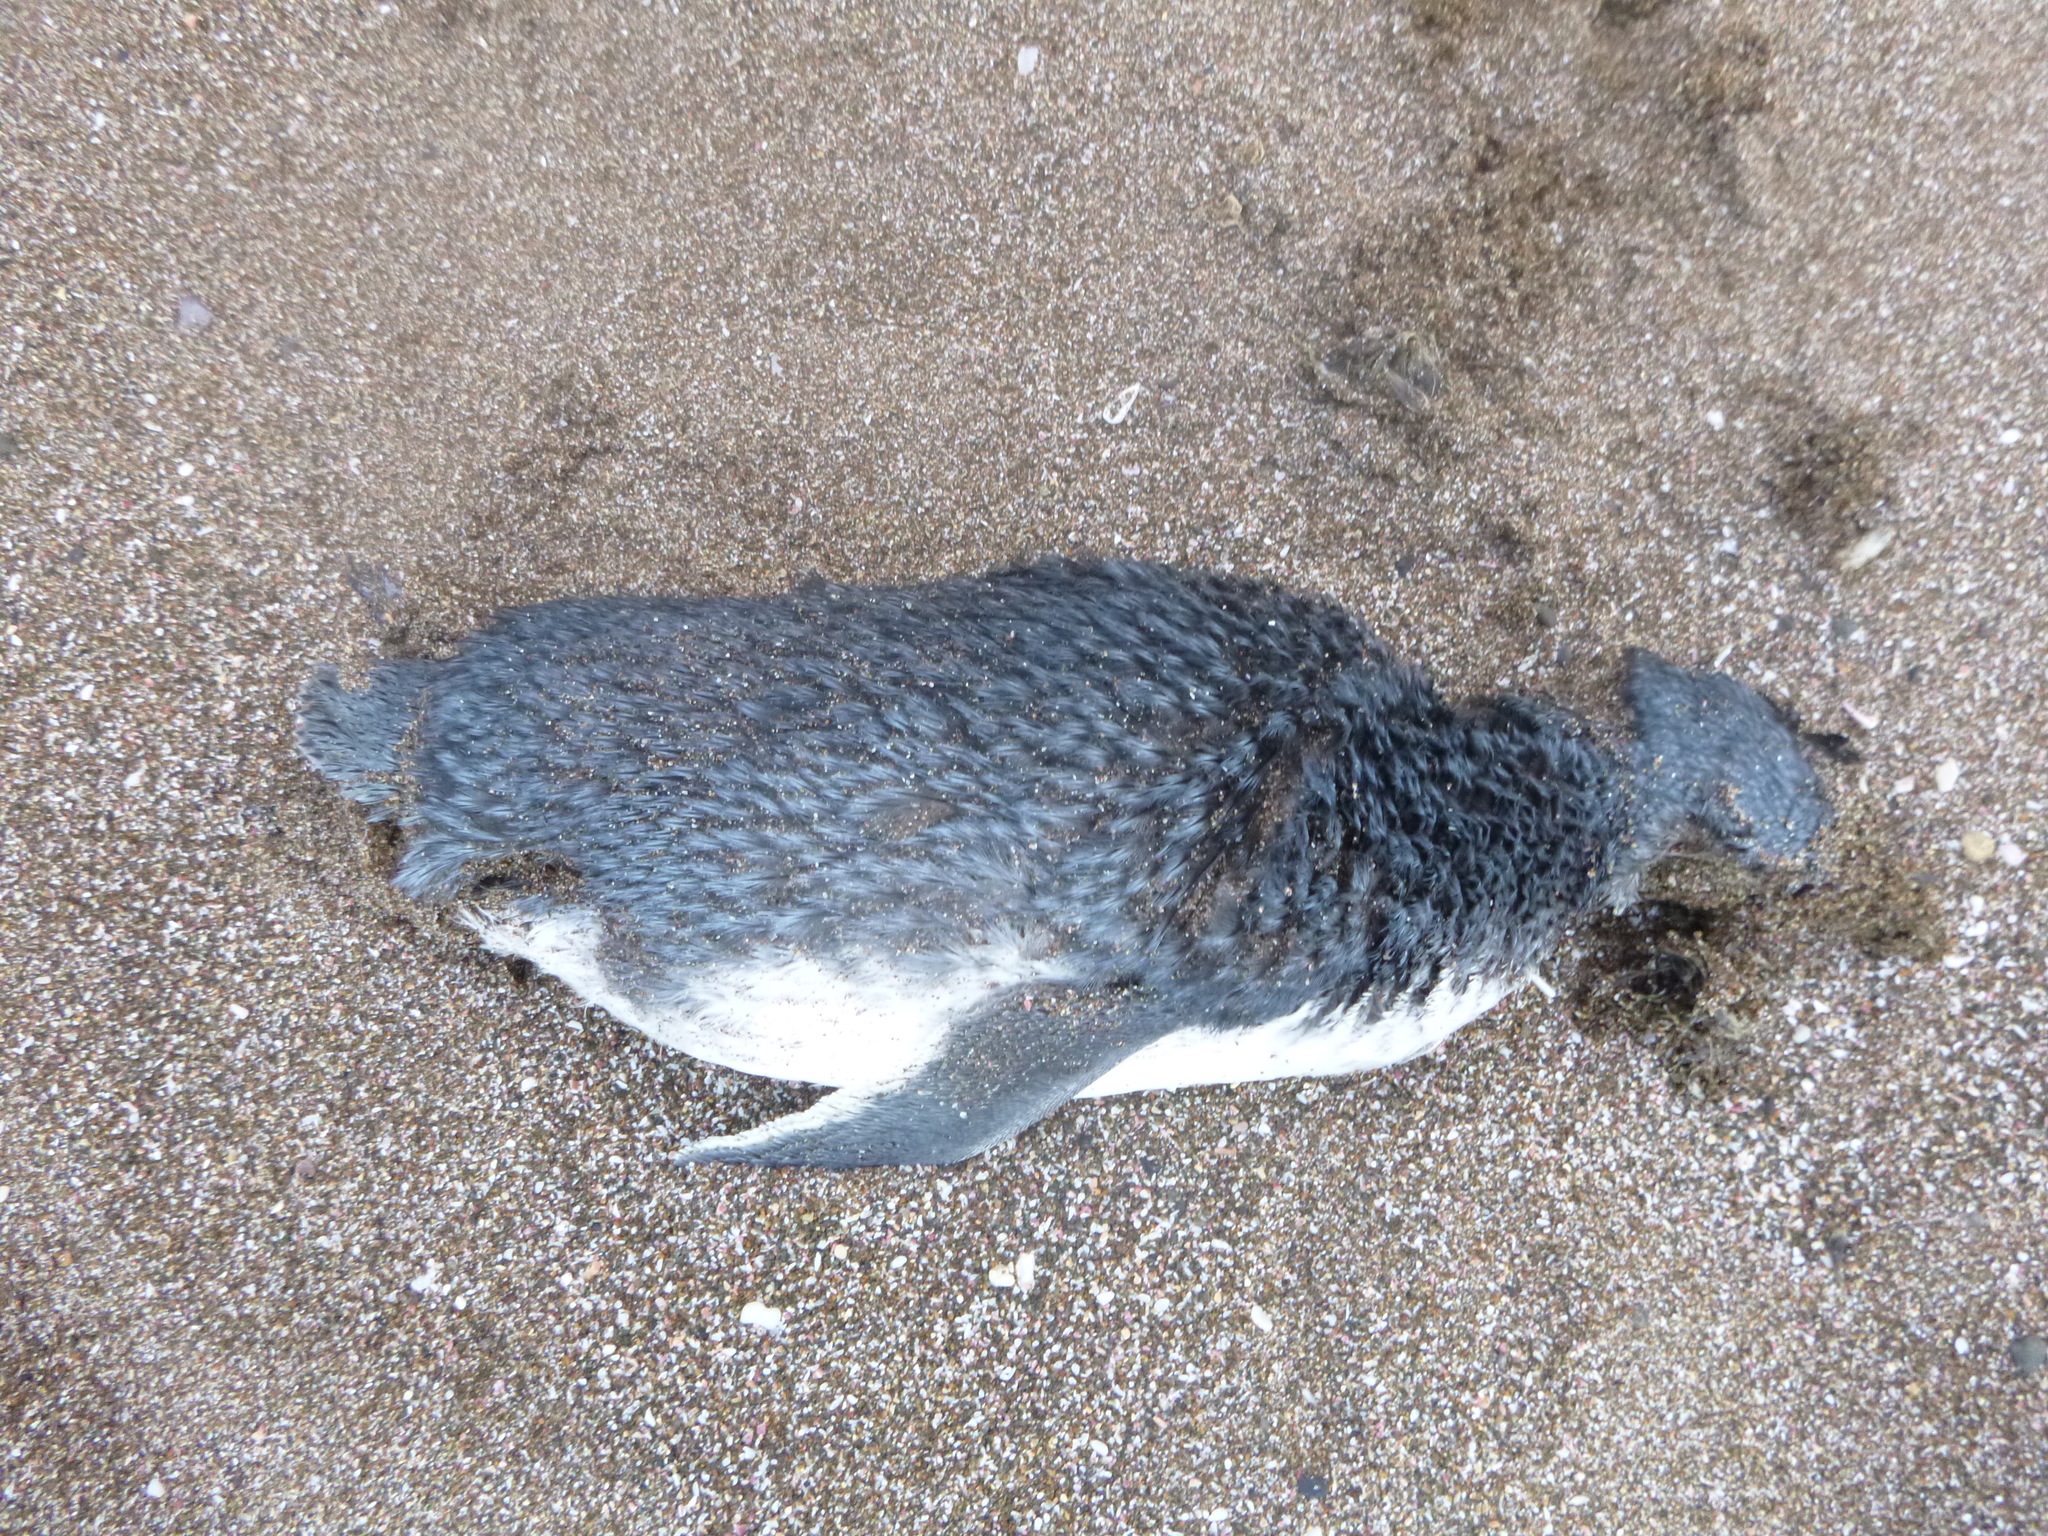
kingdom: Animalia
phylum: Chordata
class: Aves
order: Sphenisciformes
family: Spheniscidae
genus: Eudyptula
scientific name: Eudyptula minor
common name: Little penguin
